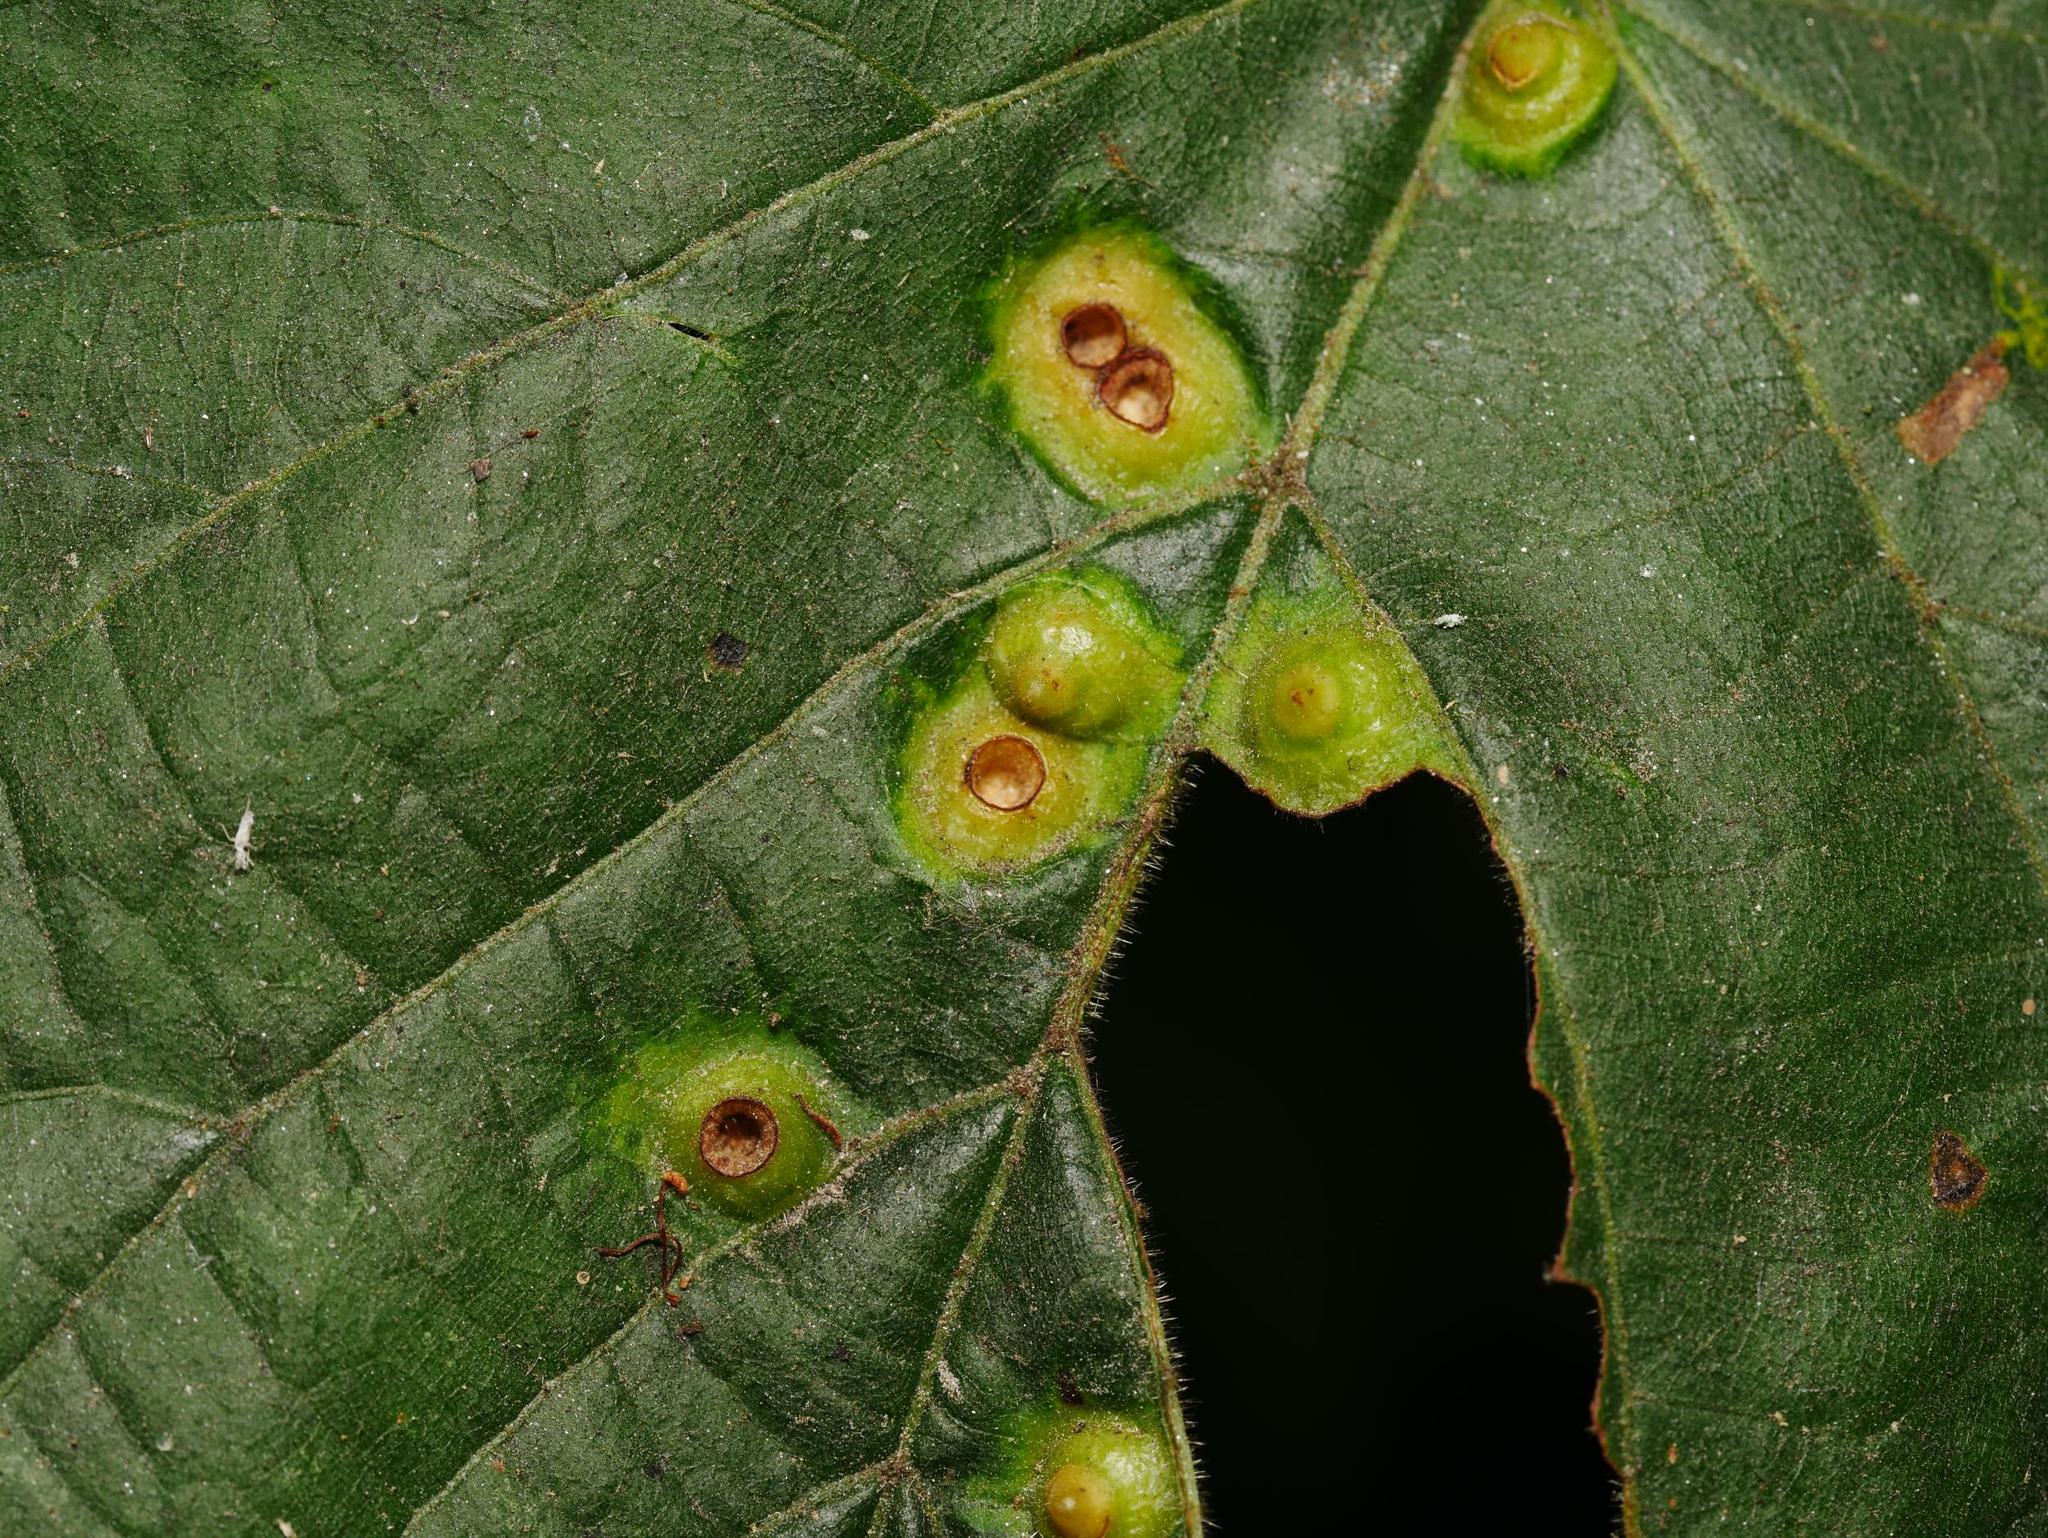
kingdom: Animalia
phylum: Arthropoda
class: Insecta
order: Diptera
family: Cecidomyiidae
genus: Didymomyia
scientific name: Didymomyia tiliacea
